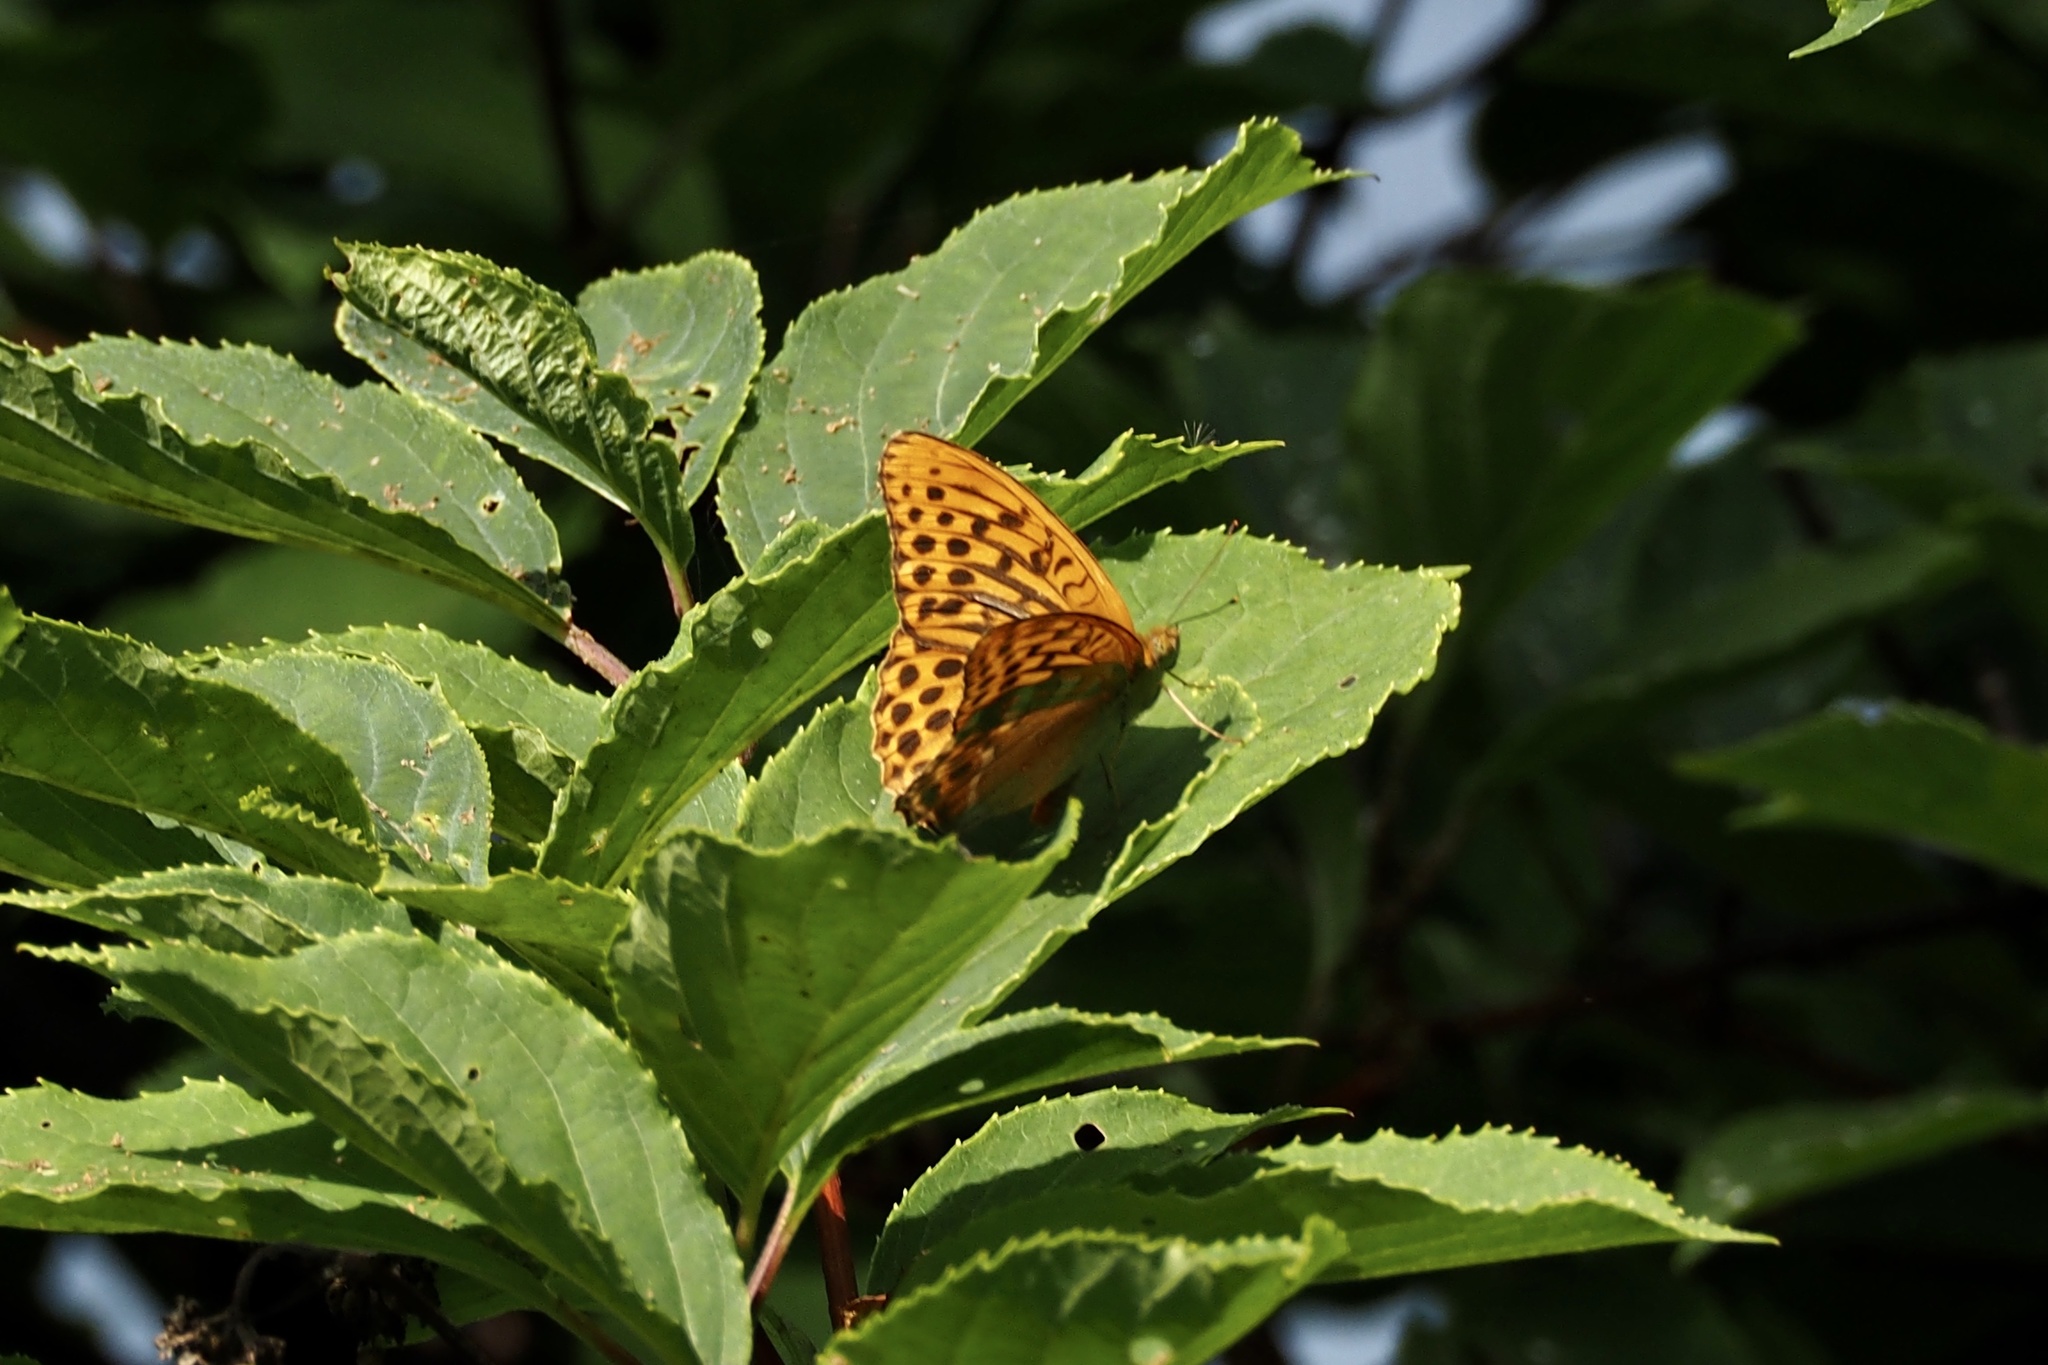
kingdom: Animalia
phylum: Arthropoda
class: Insecta
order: Lepidoptera
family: Nymphalidae
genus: Argynnis
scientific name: Argynnis paphia
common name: Silver-washed fritillary
